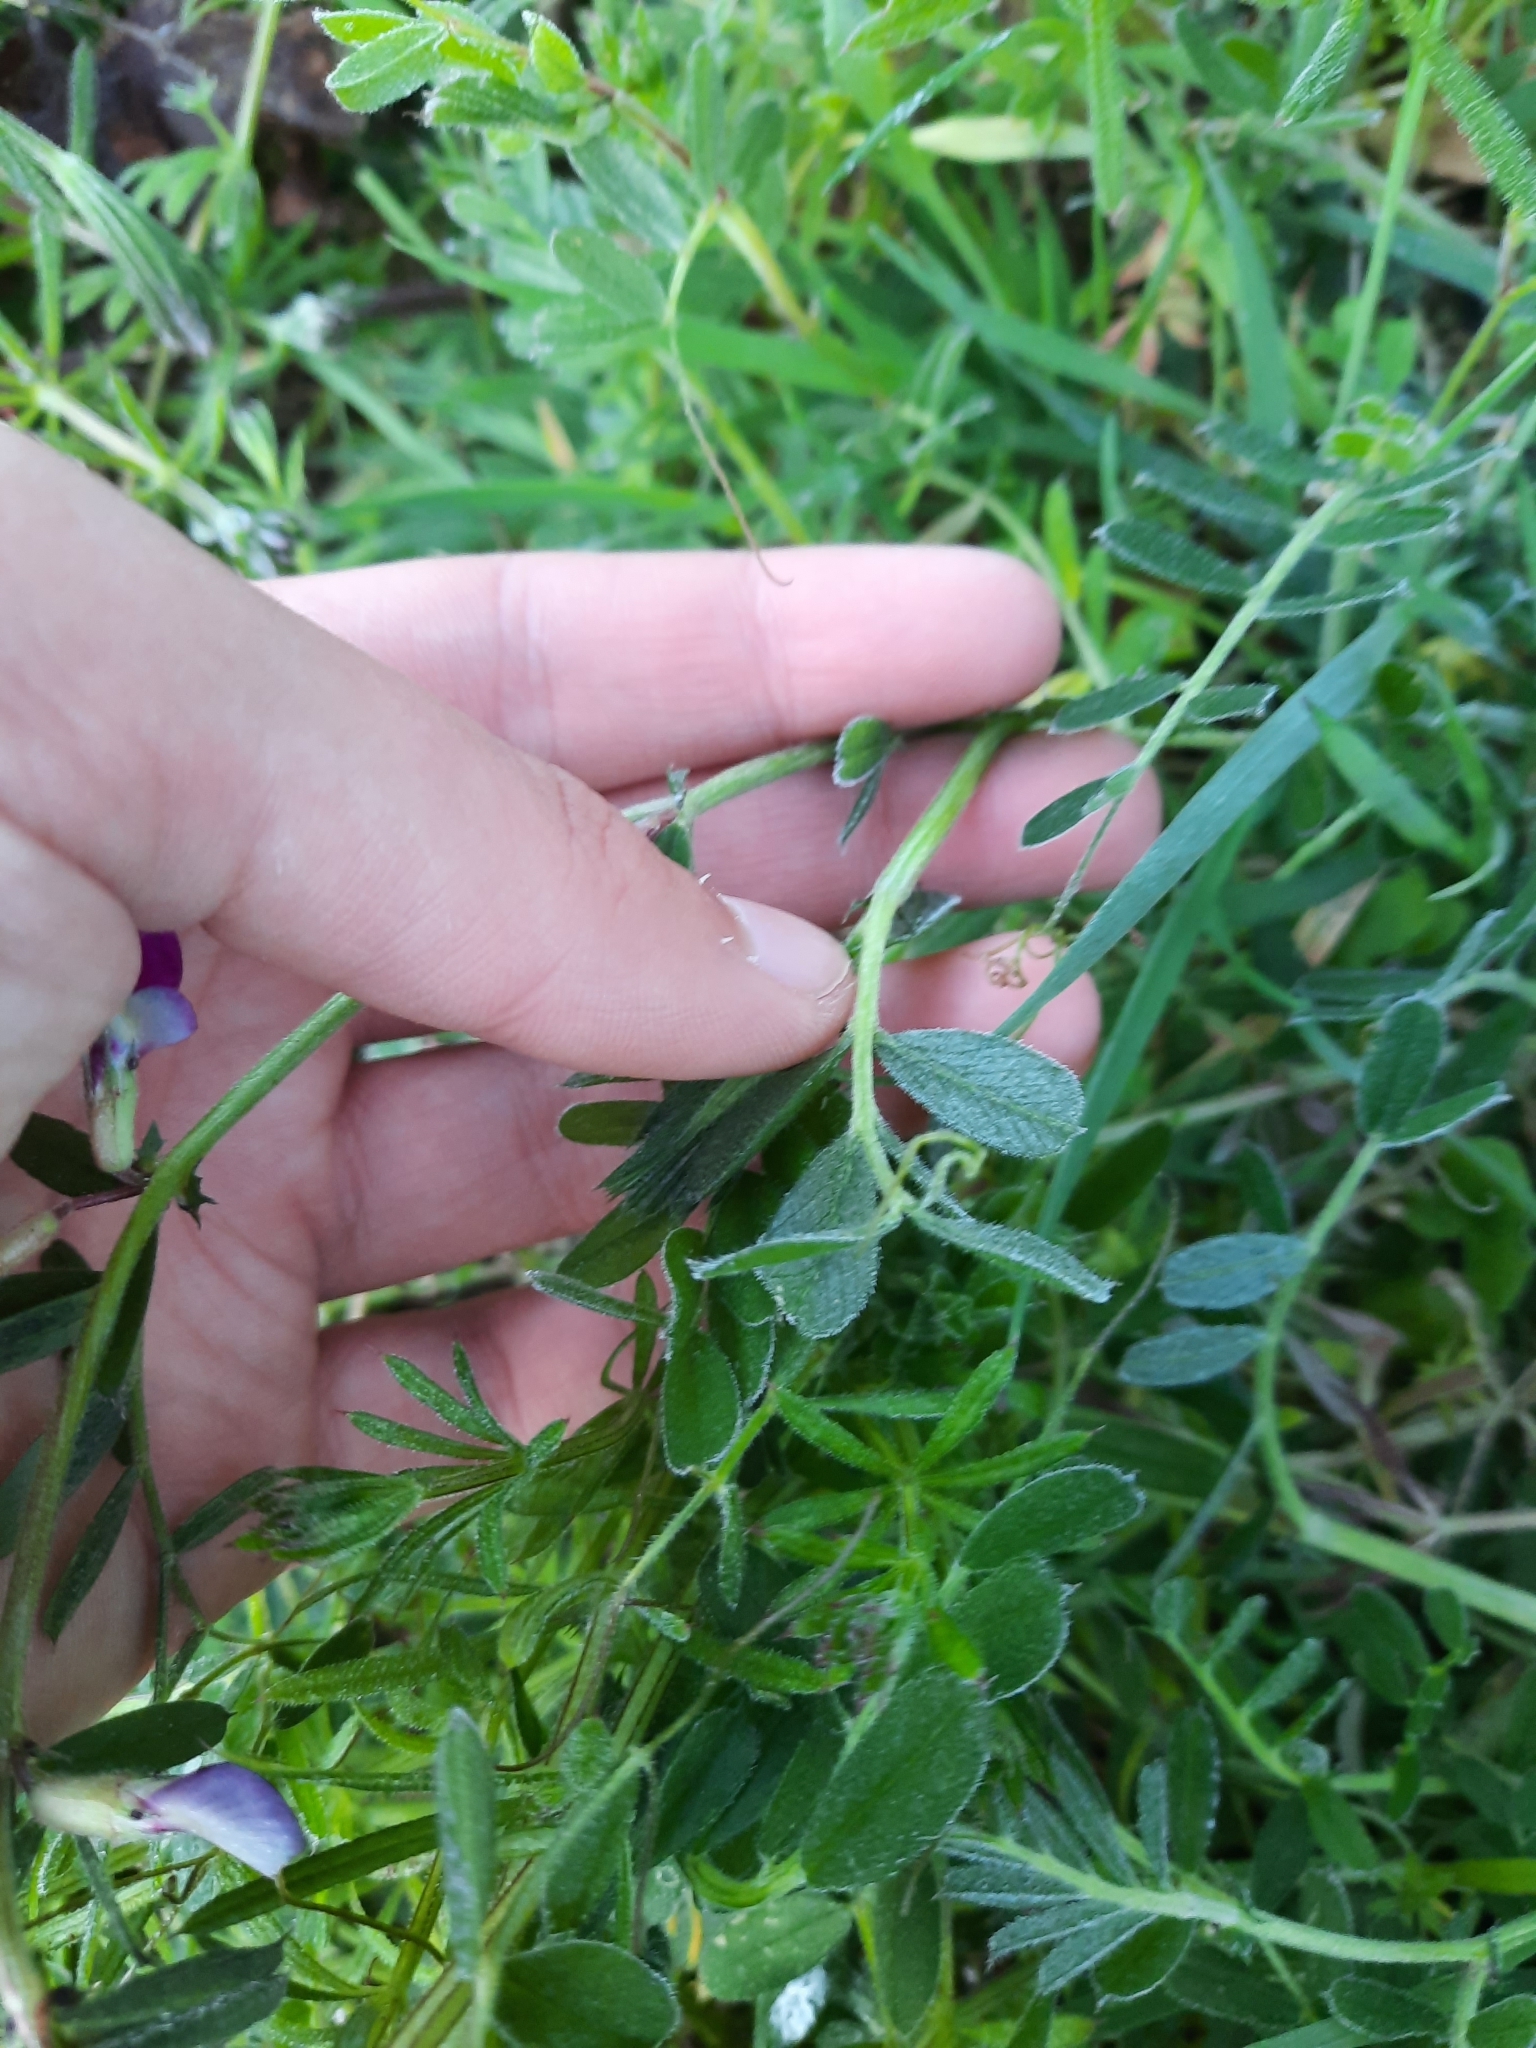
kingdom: Plantae
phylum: Tracheophyta
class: Magnoliopsida
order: Fabales
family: Fabaceae
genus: Vicia
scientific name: Vicia sativa
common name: Garden vetch
